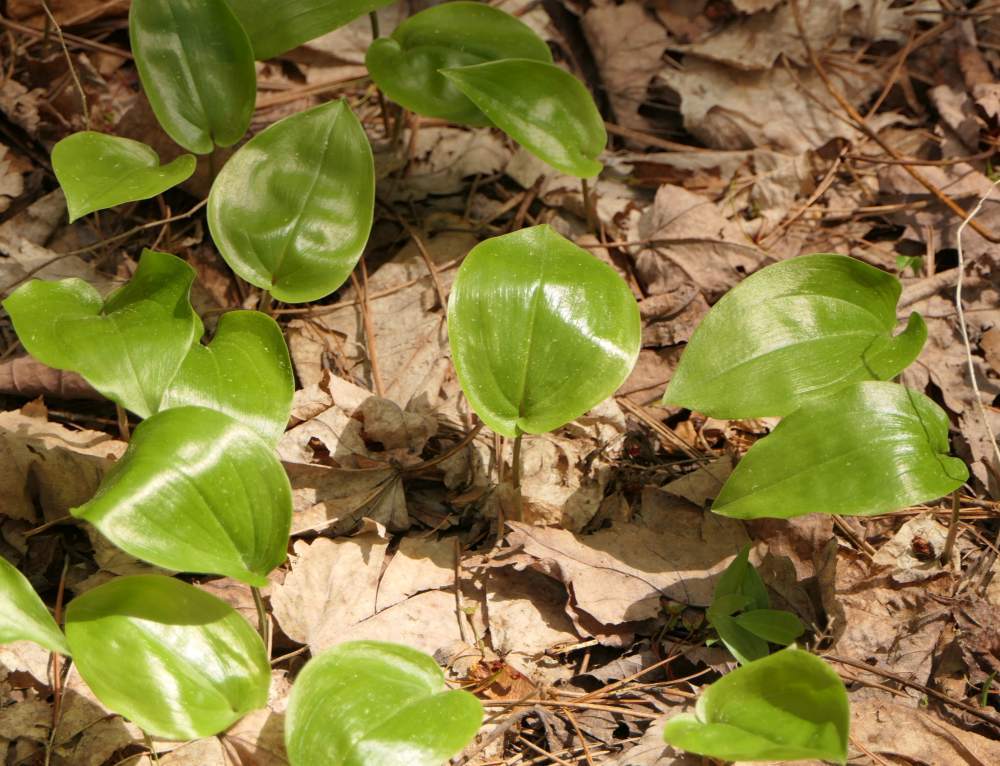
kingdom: Plantae
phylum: Tracheophyta
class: Liliopsida
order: Asparagales
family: Asparagaceae
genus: Maianthemum
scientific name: Maianthemum canadense
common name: False lily-of-the-valley
